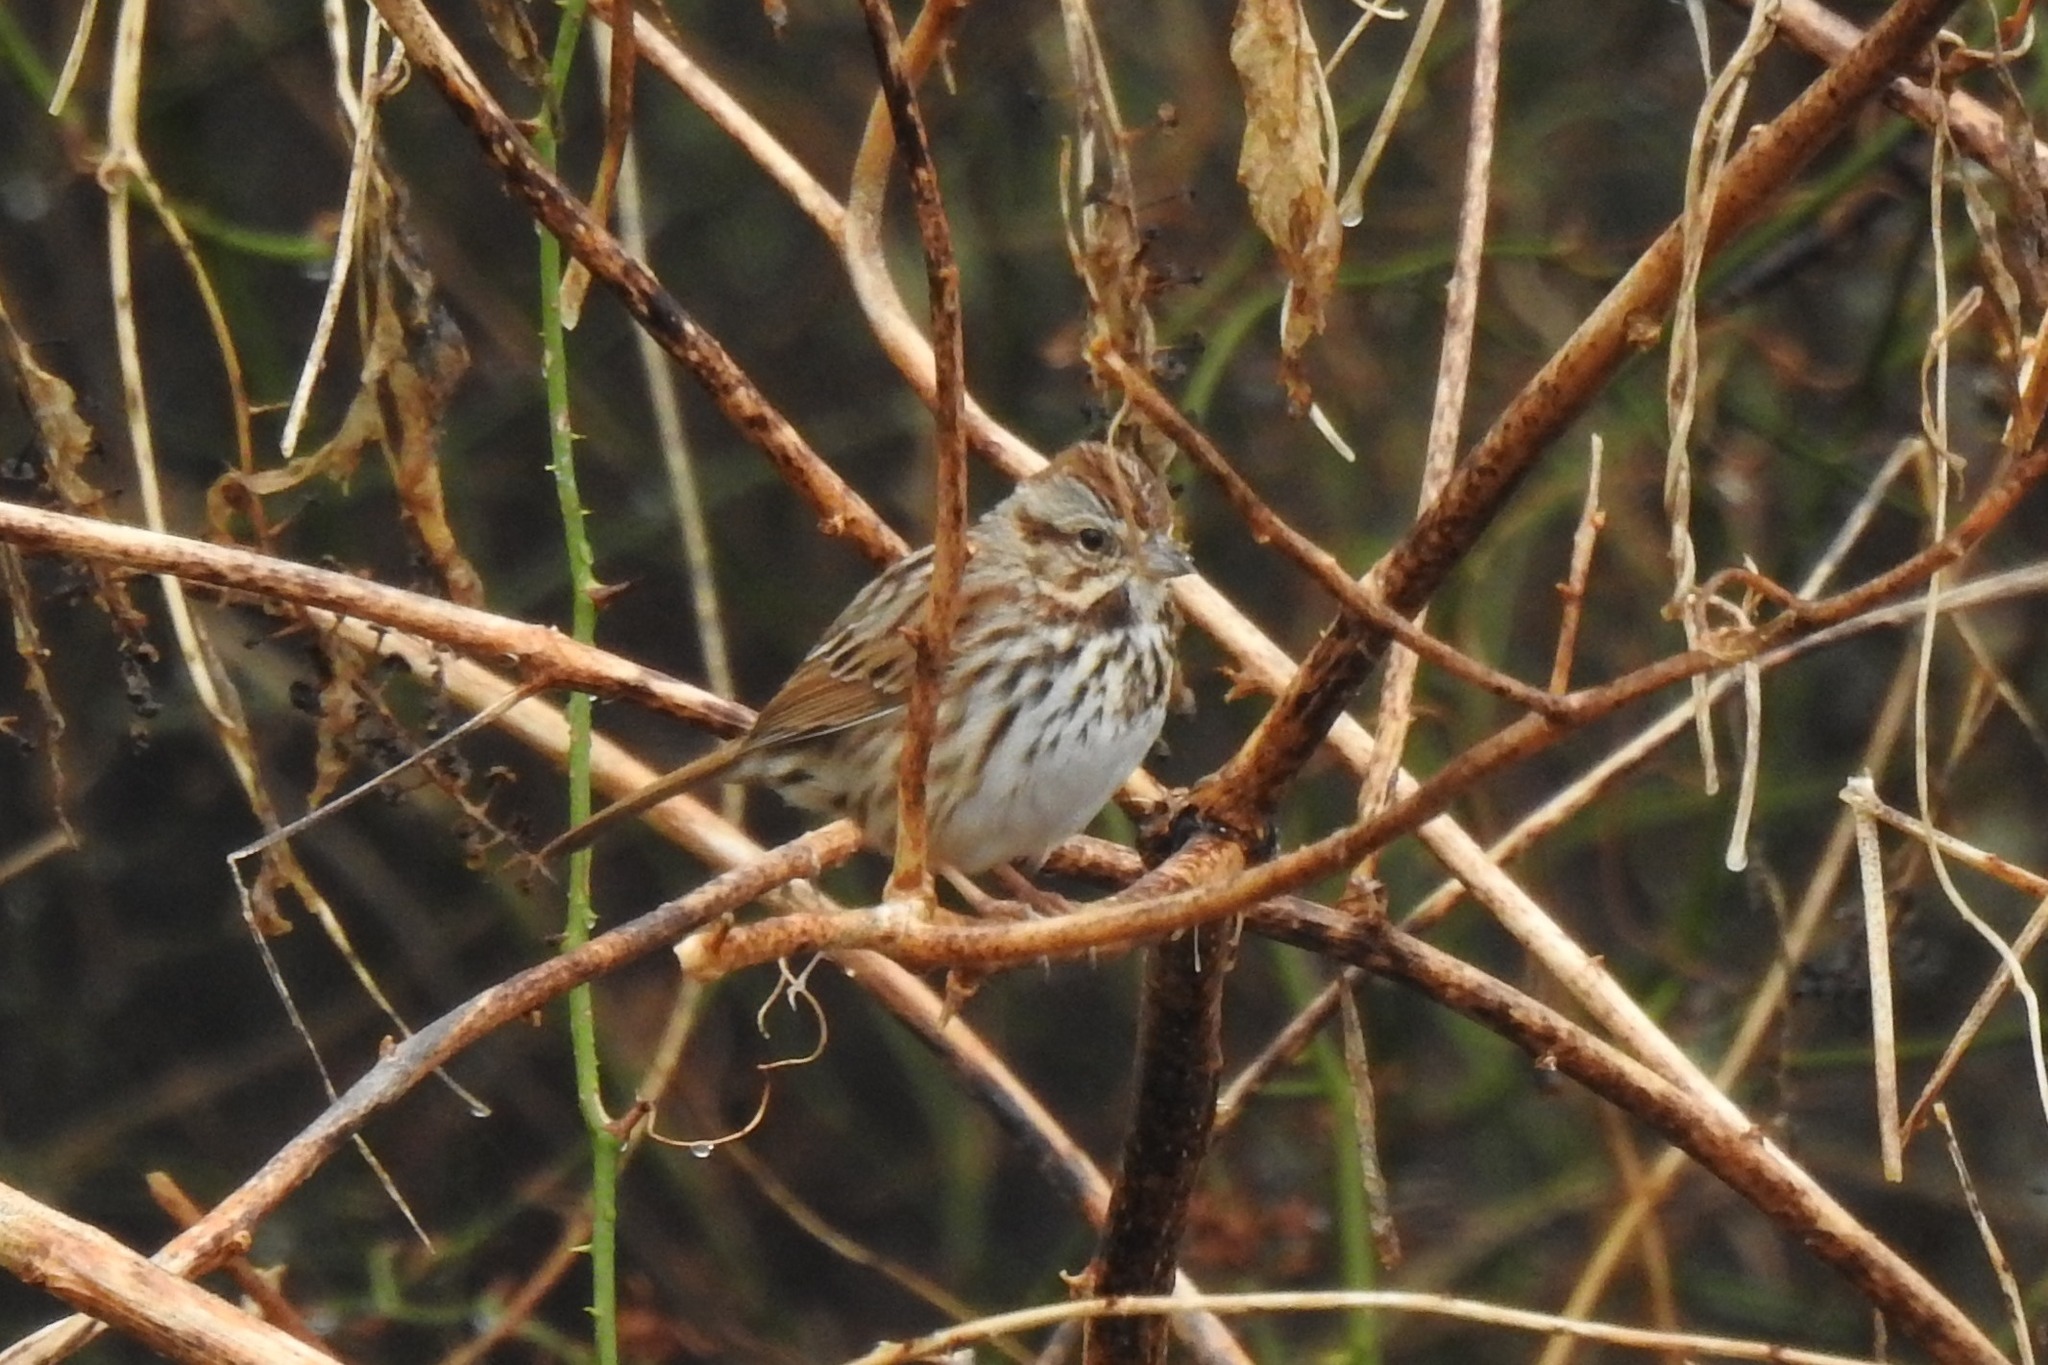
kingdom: Animalia
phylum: Chordata
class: Aves
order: Passeriformes
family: Passerellidae
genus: Melospiza
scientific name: Melospiza melodia
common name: Song sparrow
